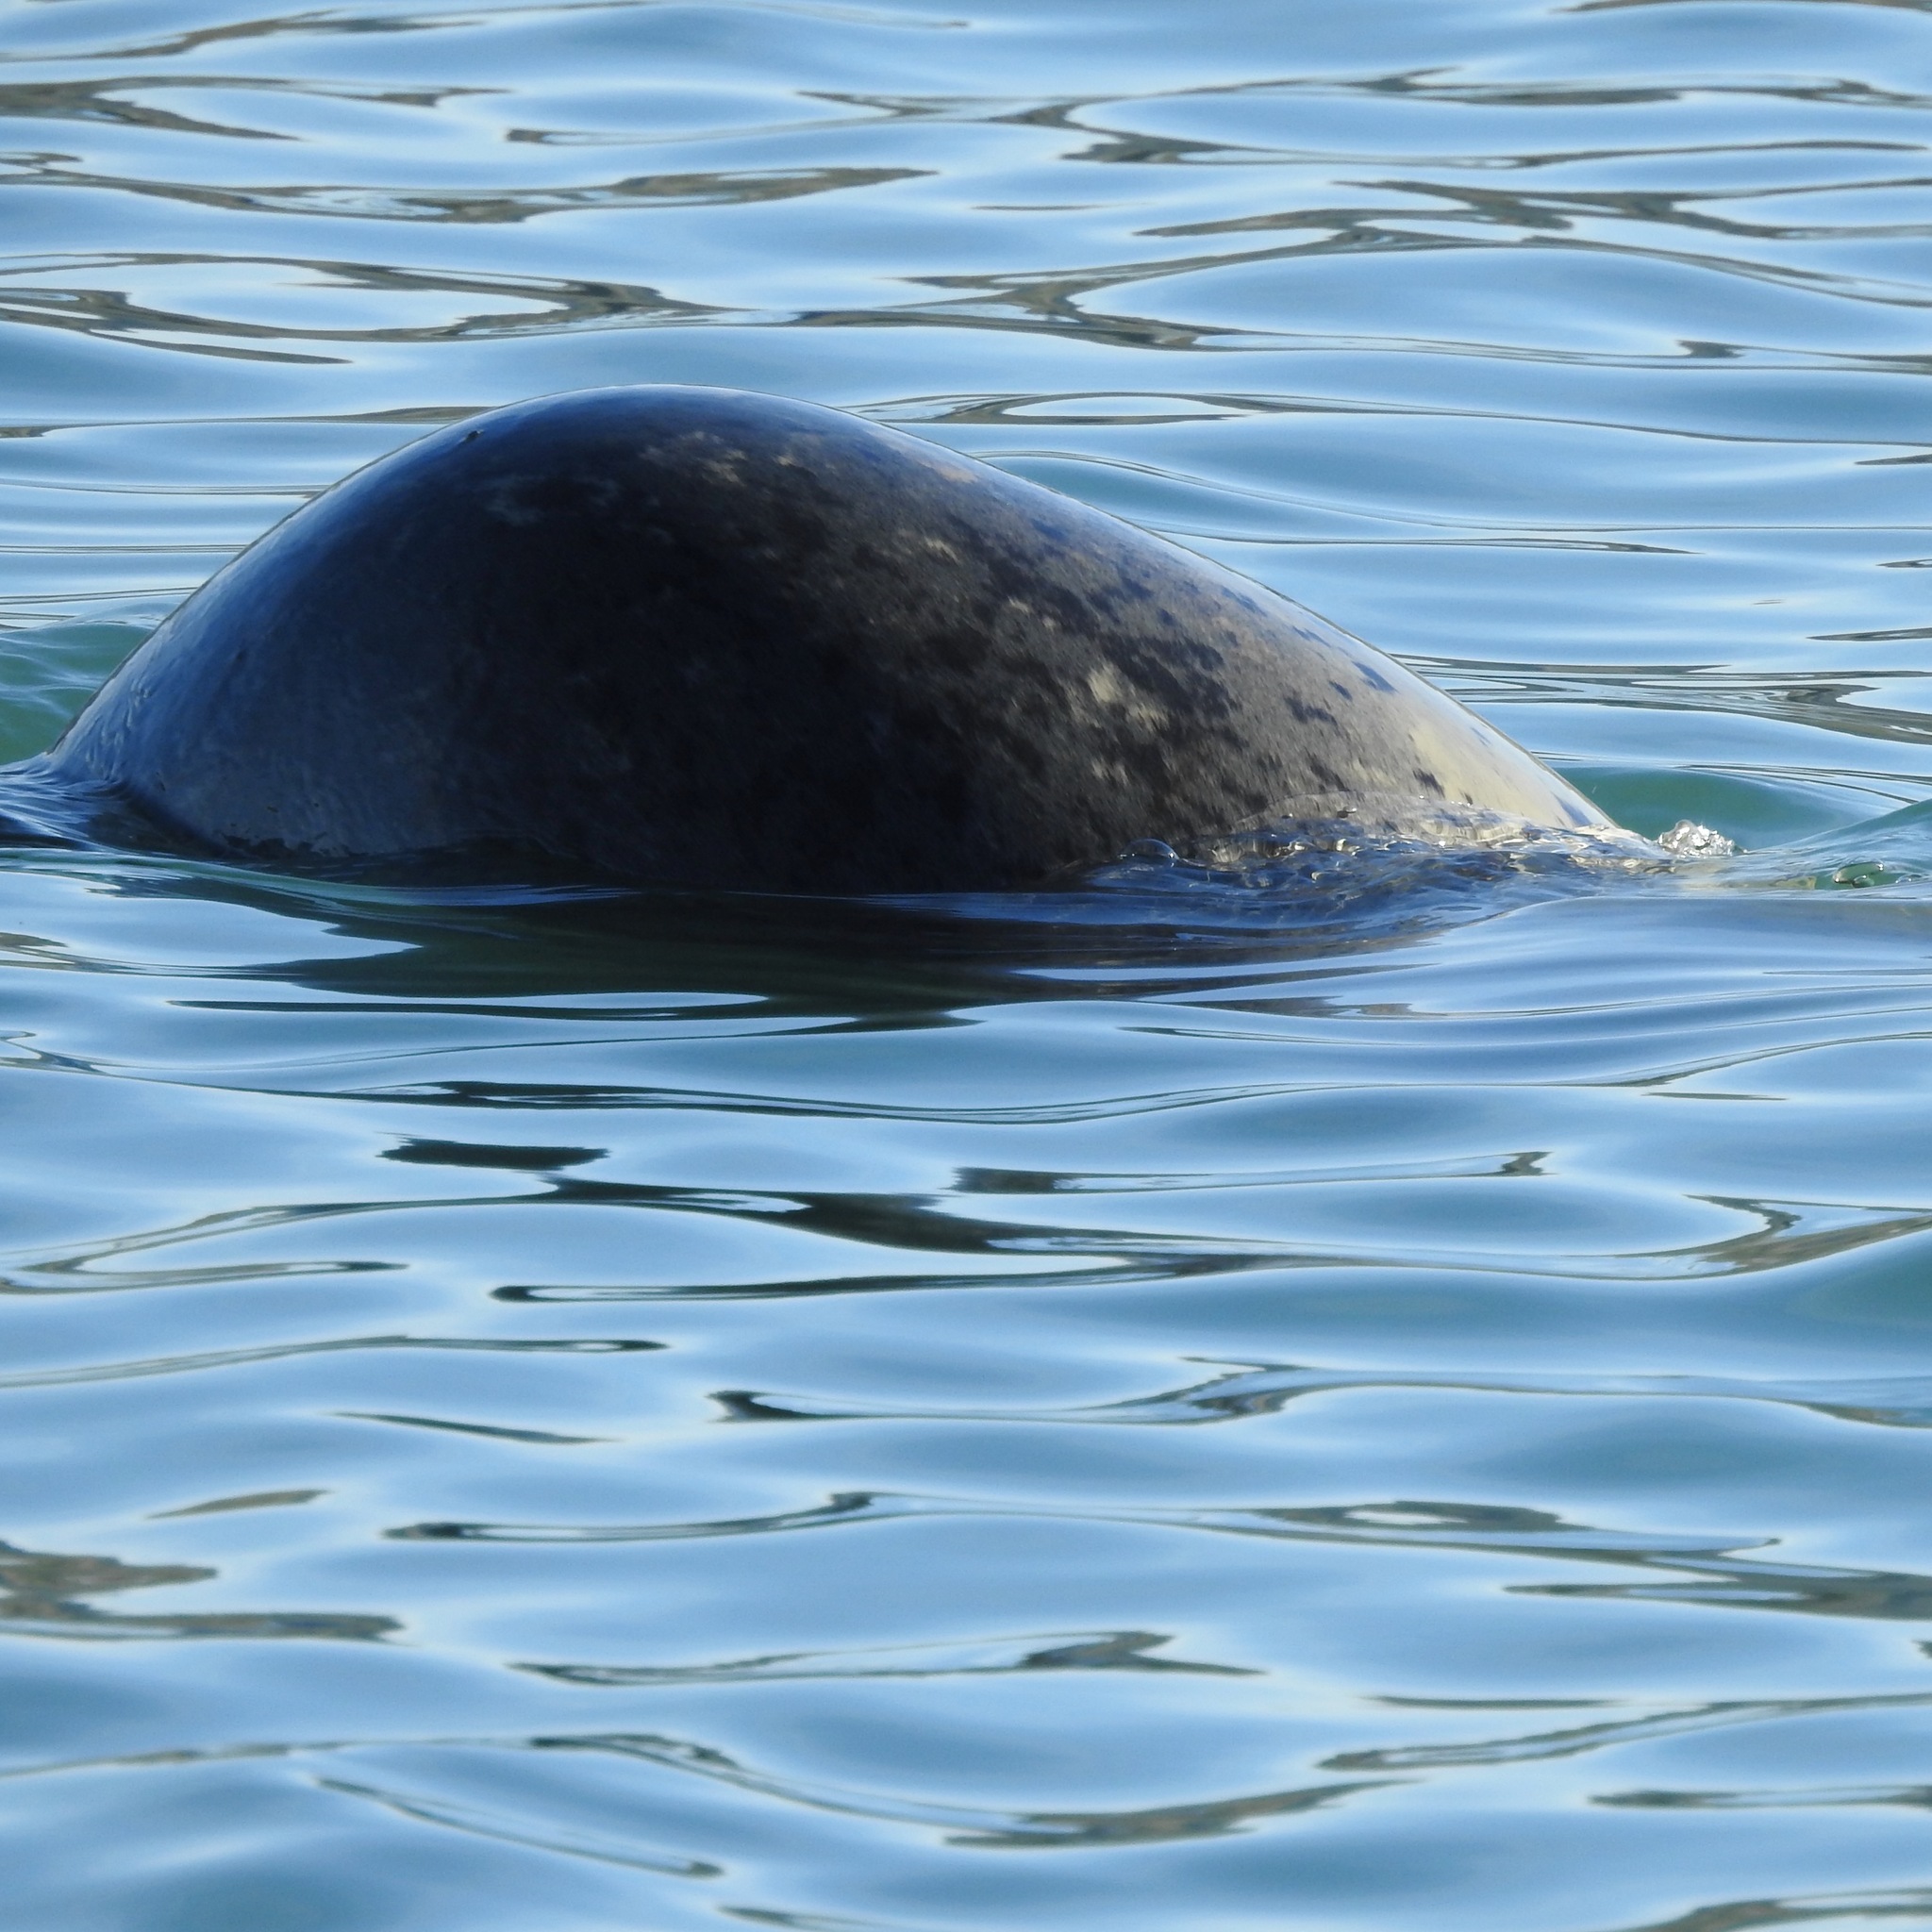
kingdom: Animalia
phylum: Chordata
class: Mammalia
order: Carnivora
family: Phocidae
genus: Phoca
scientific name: Phoca vitulina
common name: Harbor seal
